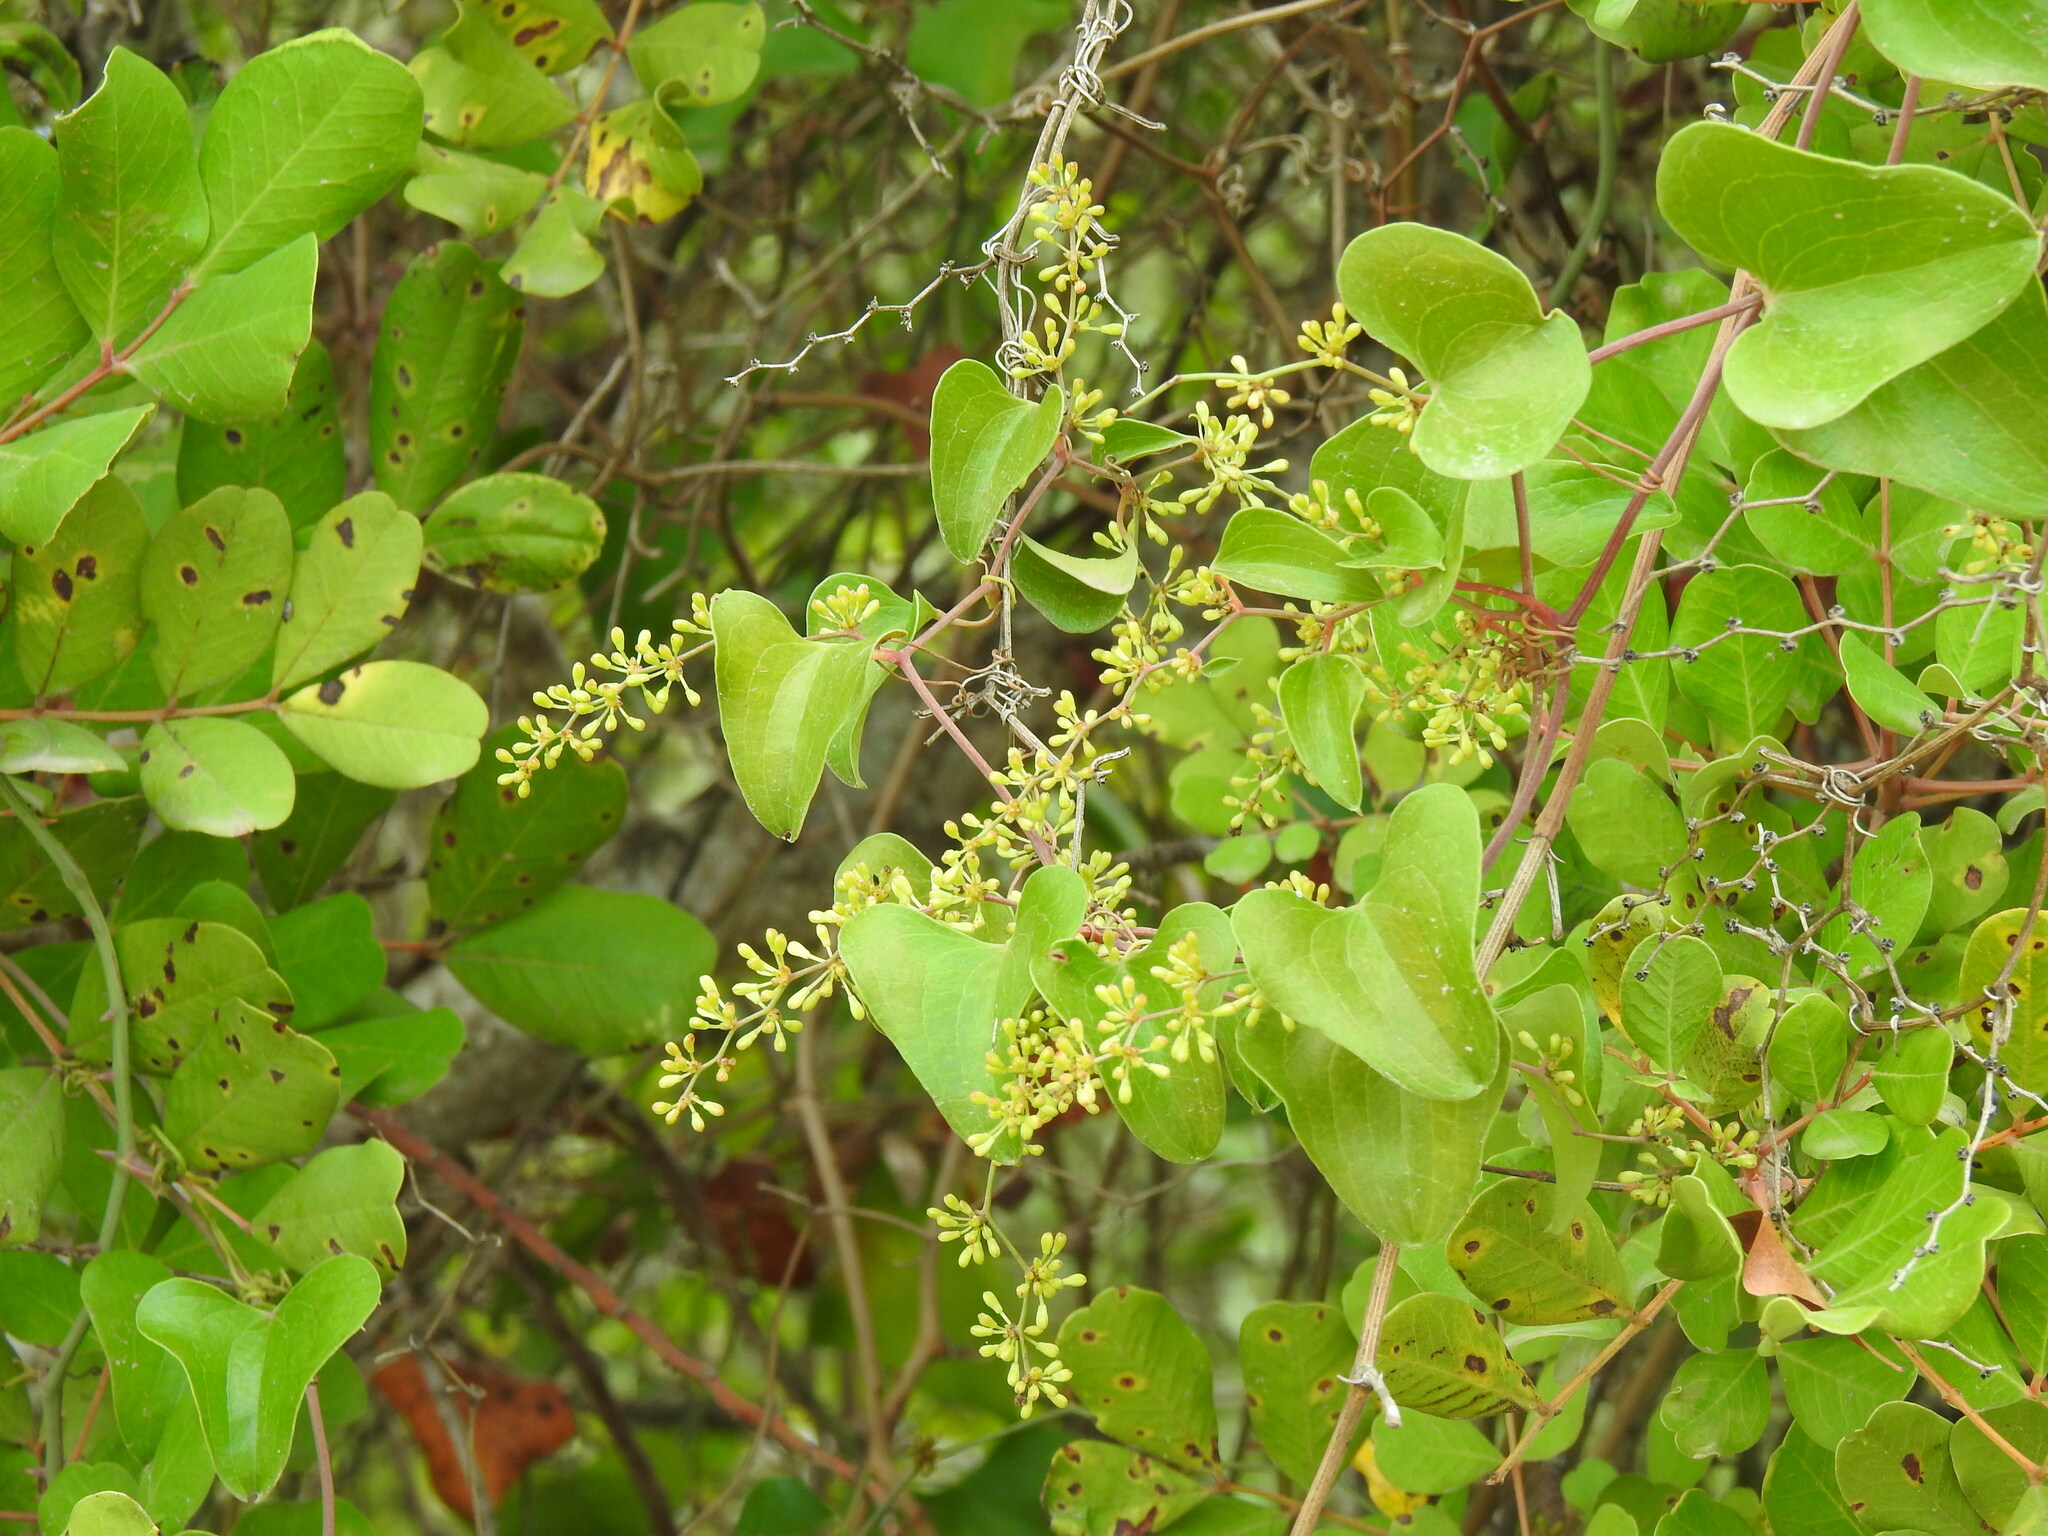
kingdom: Plantae
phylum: Tracheophyta
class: Liliopsida
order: Liliales
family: Smilacaceae
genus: Smilax
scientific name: Smilax aspera
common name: Common smilax
